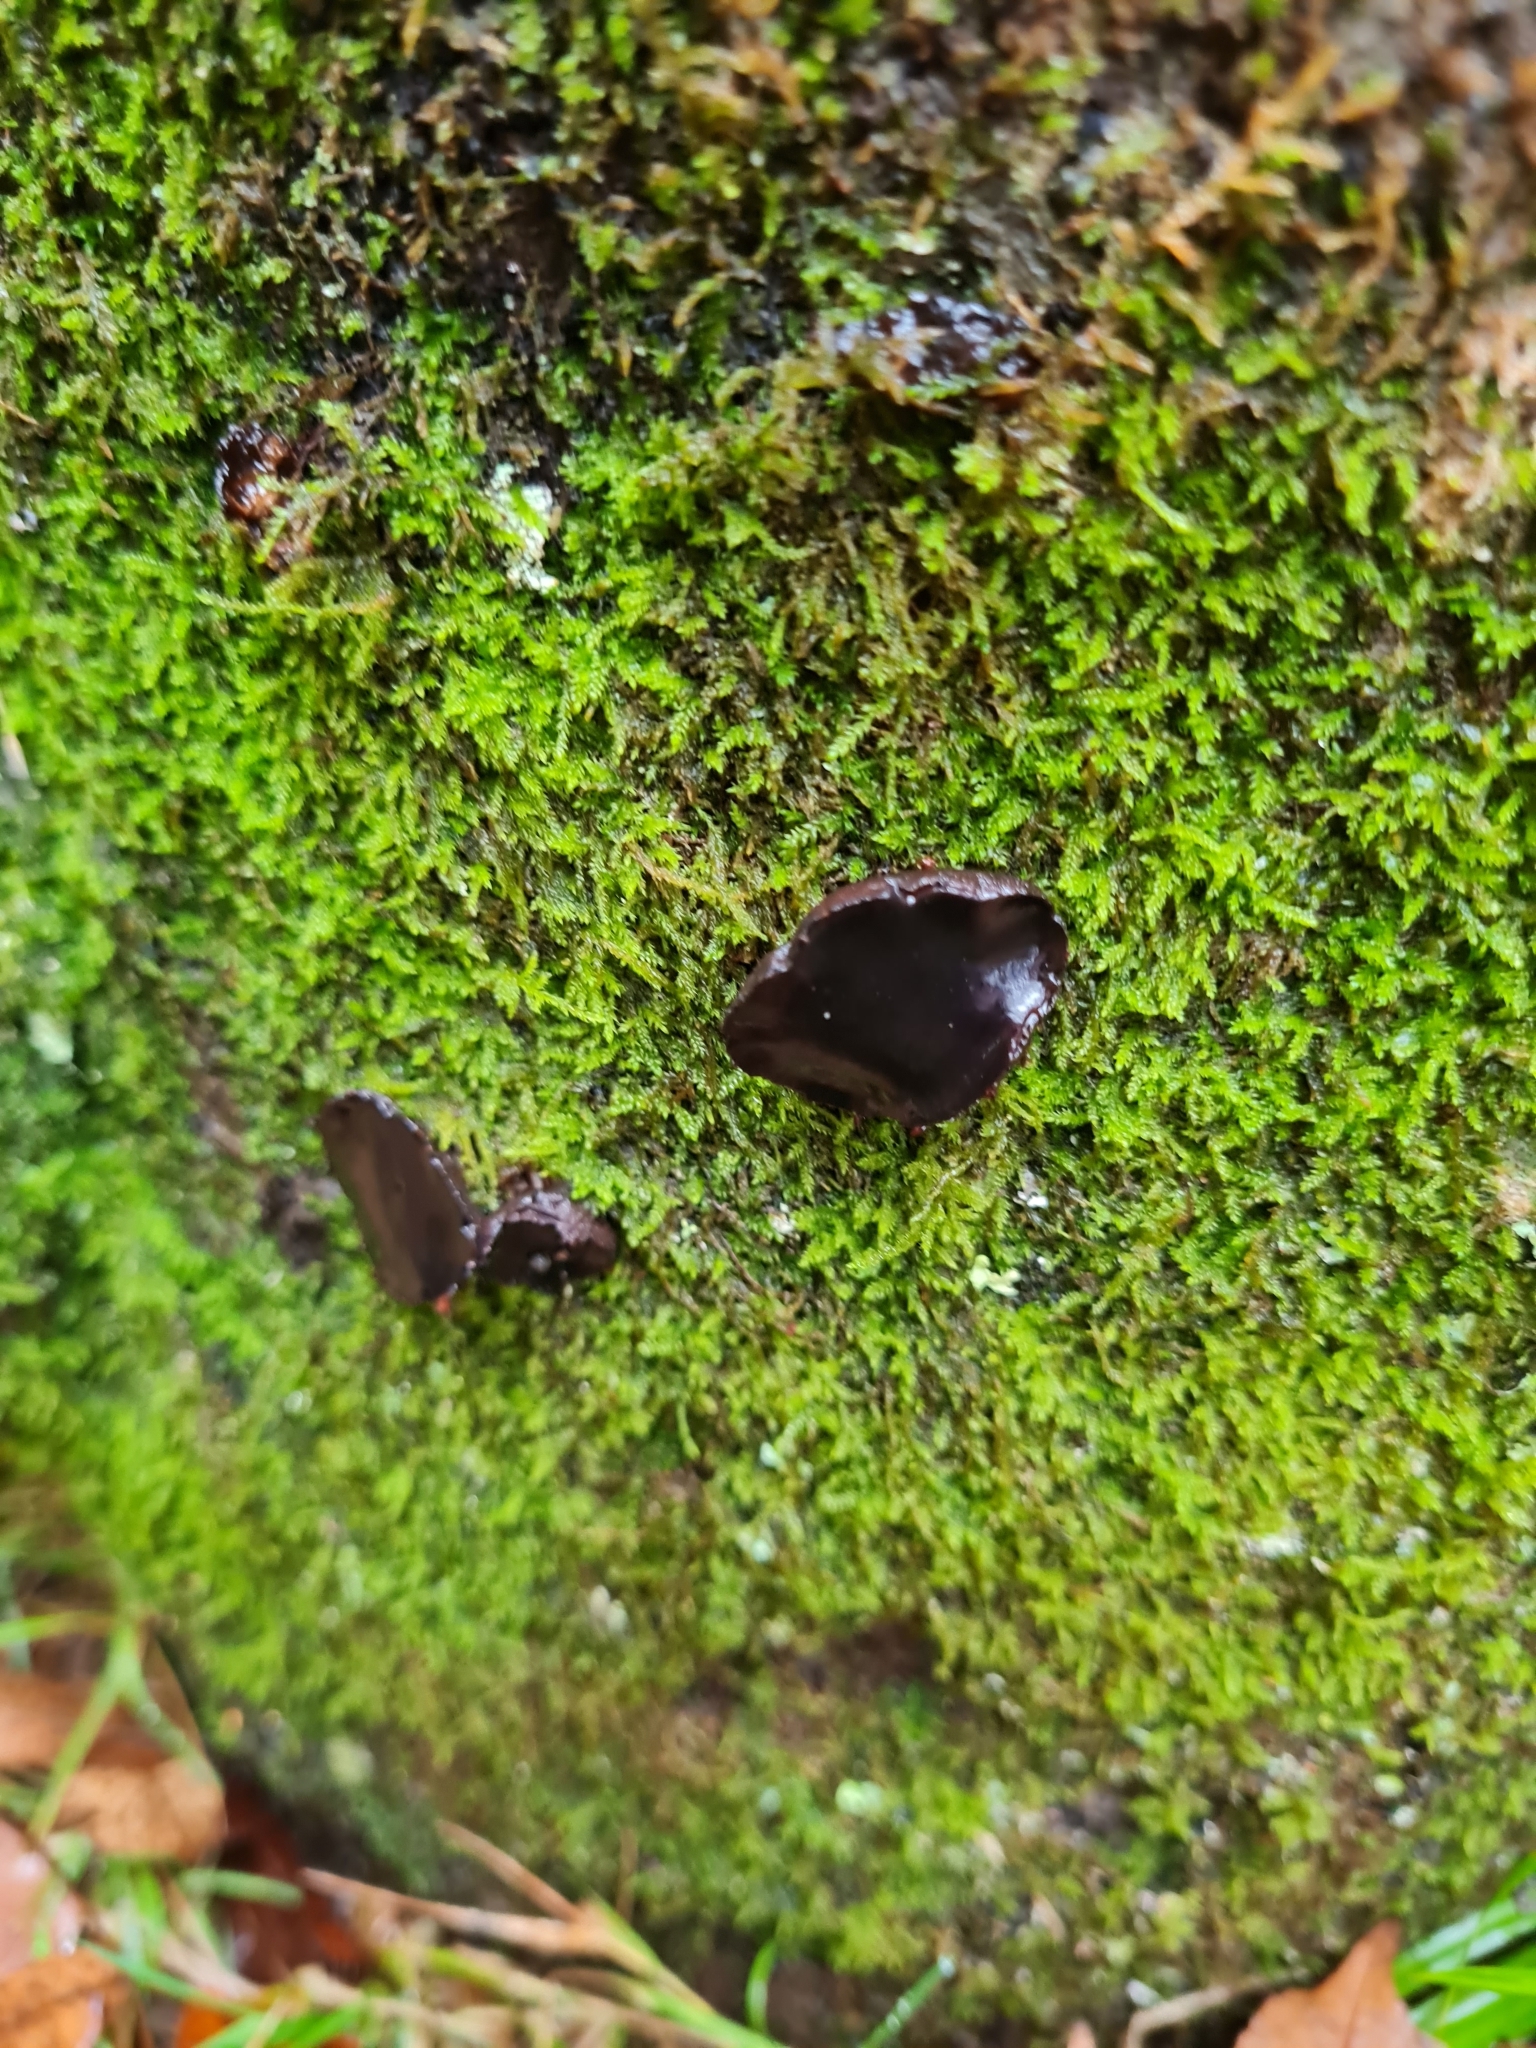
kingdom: Fungi
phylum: Ascomycota
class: Leotiomycetes
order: Phacidiales
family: Phacidiaceae
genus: Bulgaria
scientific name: Bulgaria inquinans
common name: Black bulgar
